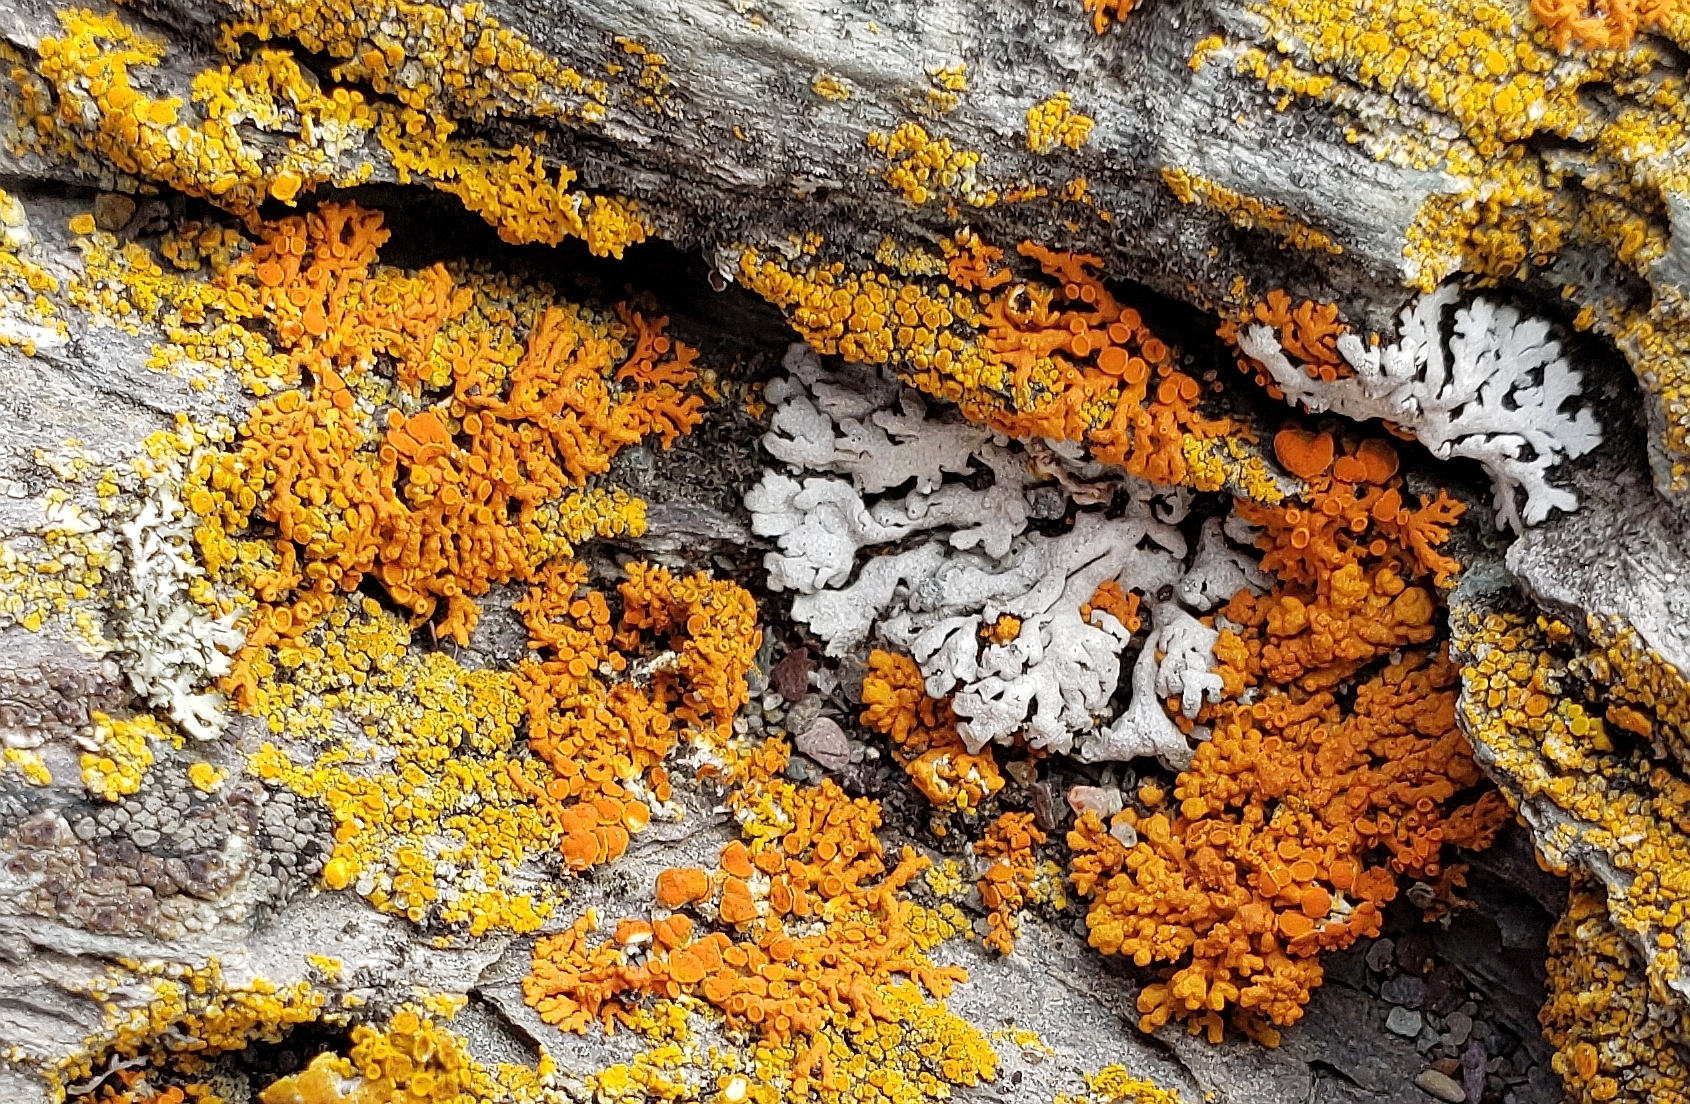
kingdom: Fungi
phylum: Ascomycota
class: Lecanoromycetes
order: Caliciales
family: Physciaceae
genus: Physcia
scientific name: Physcia caesia
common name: Blue-gray rosette lichen
